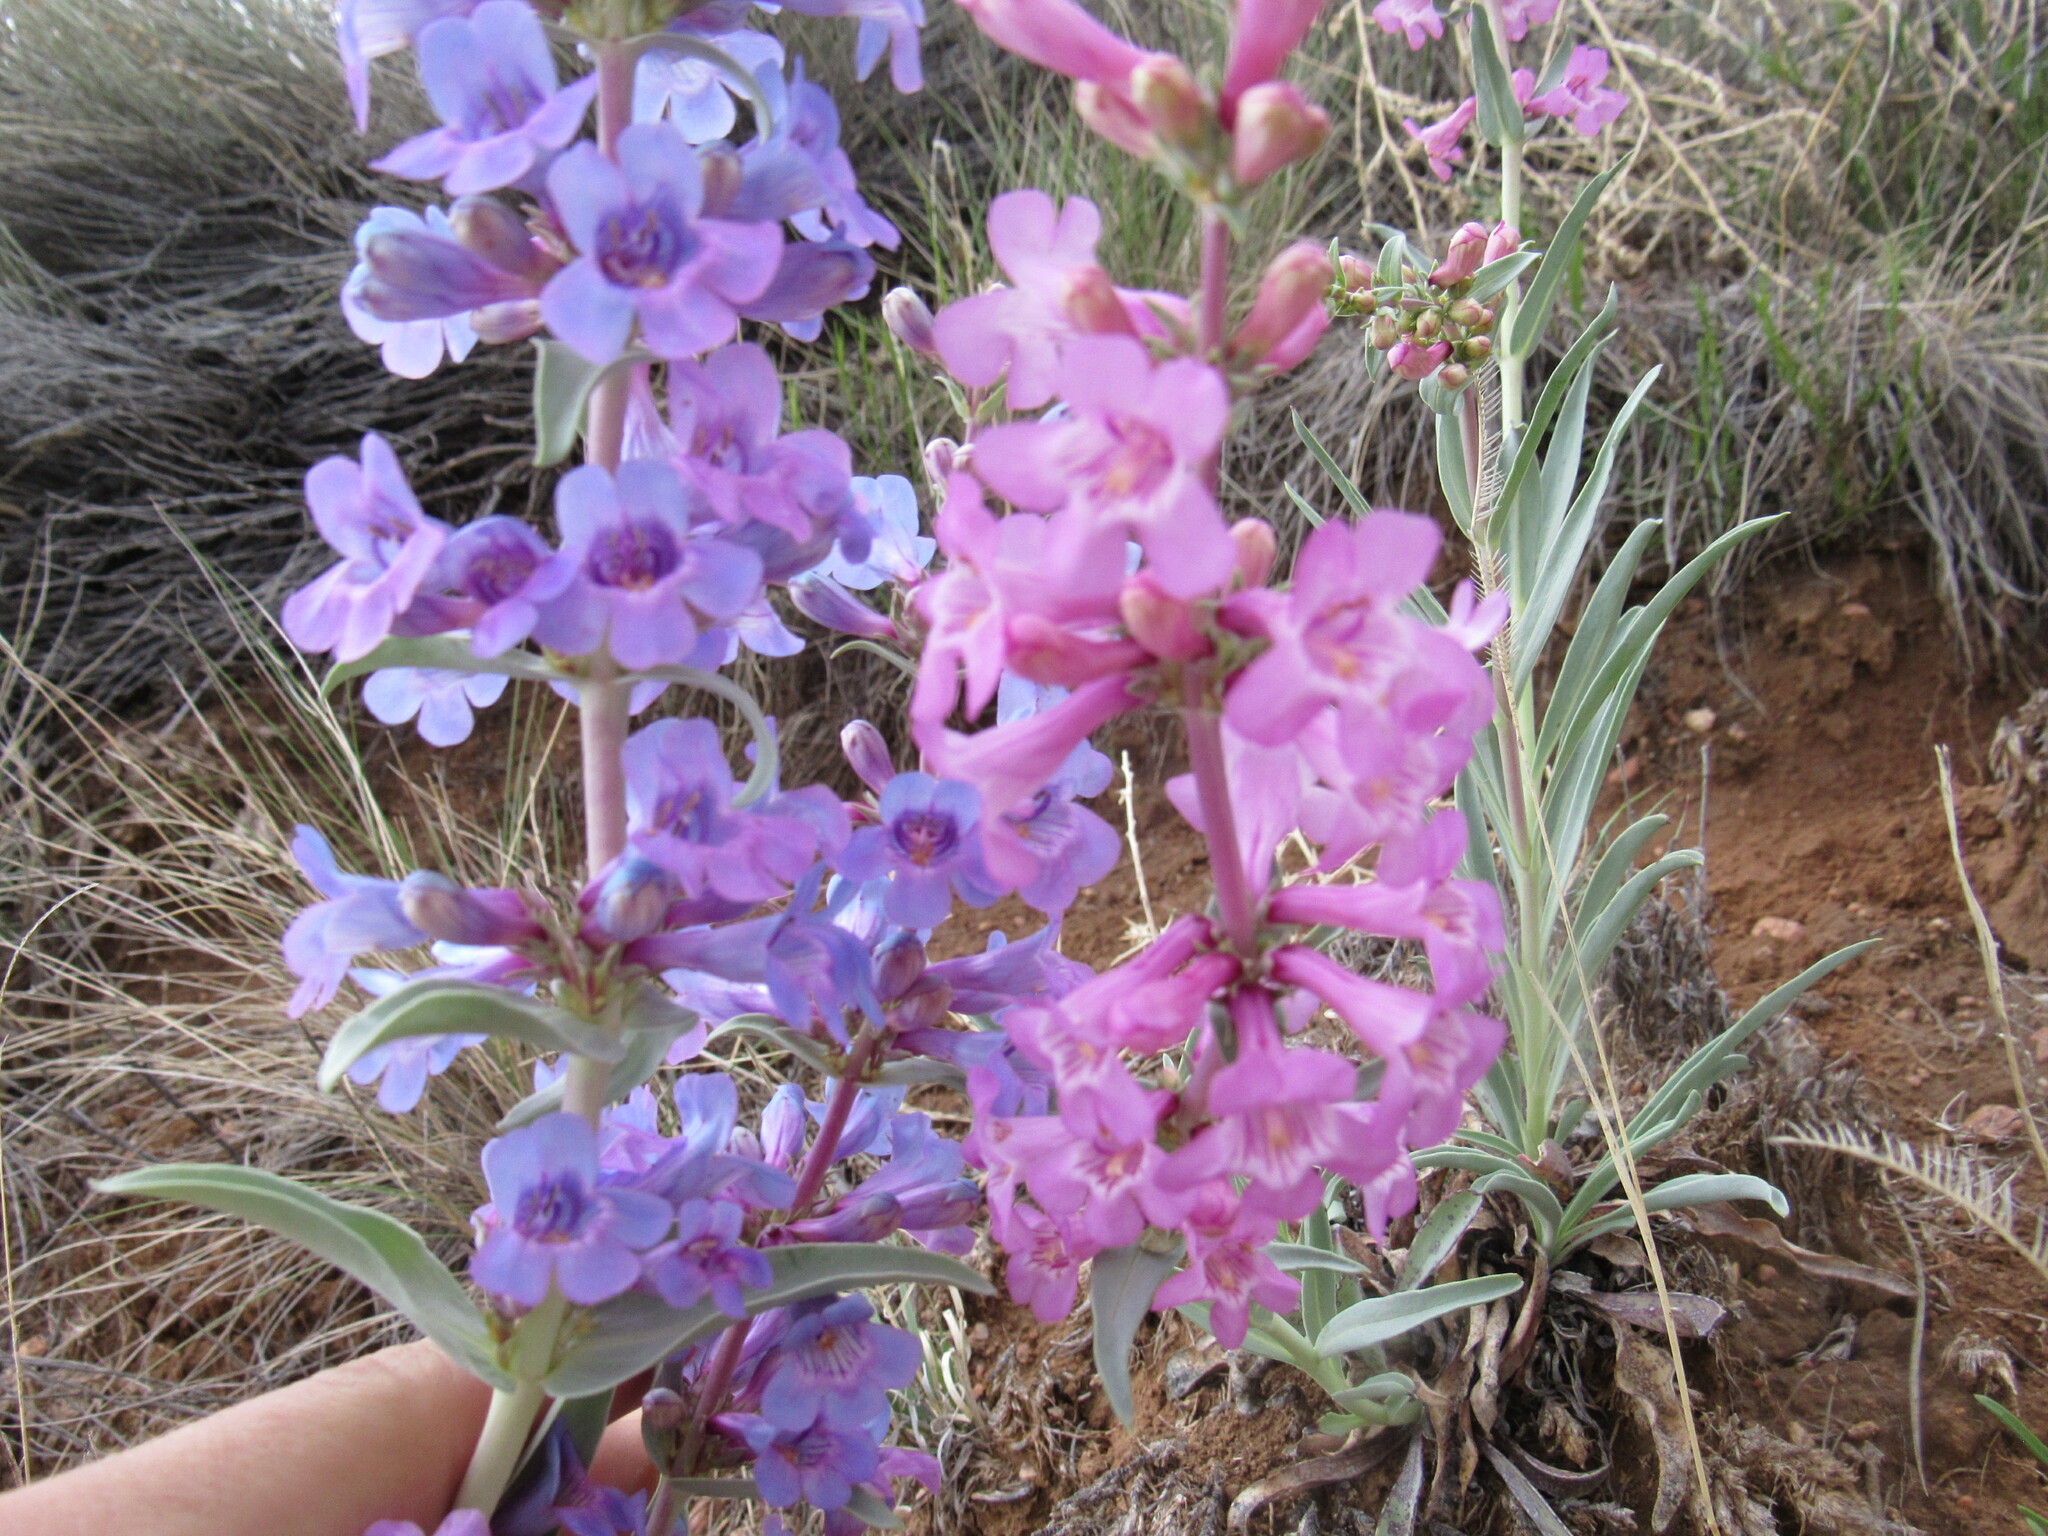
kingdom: Plantae
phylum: Tracheophyta
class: Magnoliopsida
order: Lamiales
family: Plantaginaceae
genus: Penstemon
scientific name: Penstemon angustifolius
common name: Narrow beardtongue
